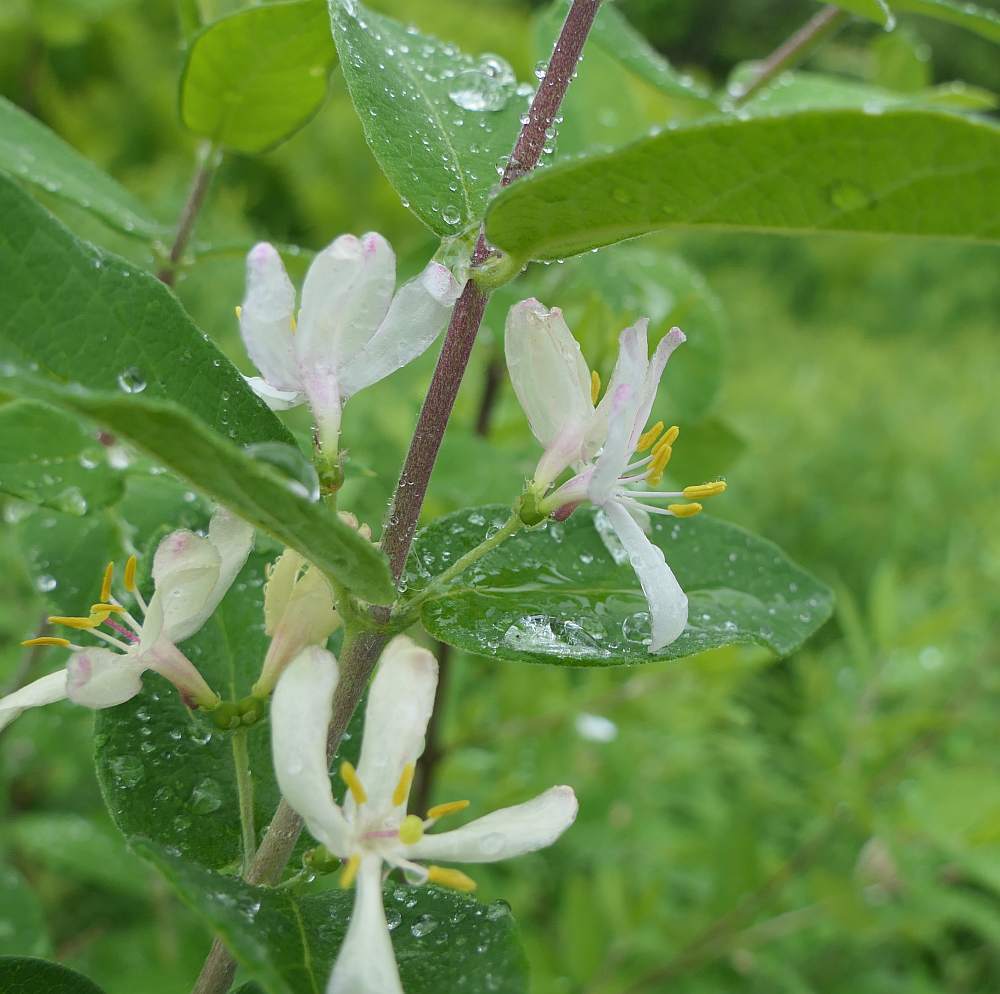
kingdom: Plantae
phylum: Tracheophyta
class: Magnoliopsida
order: Dipsacales
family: Caprifoliaceae
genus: Lonicera
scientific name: Lonicera tatarica
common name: Tatarian honeysuckle
